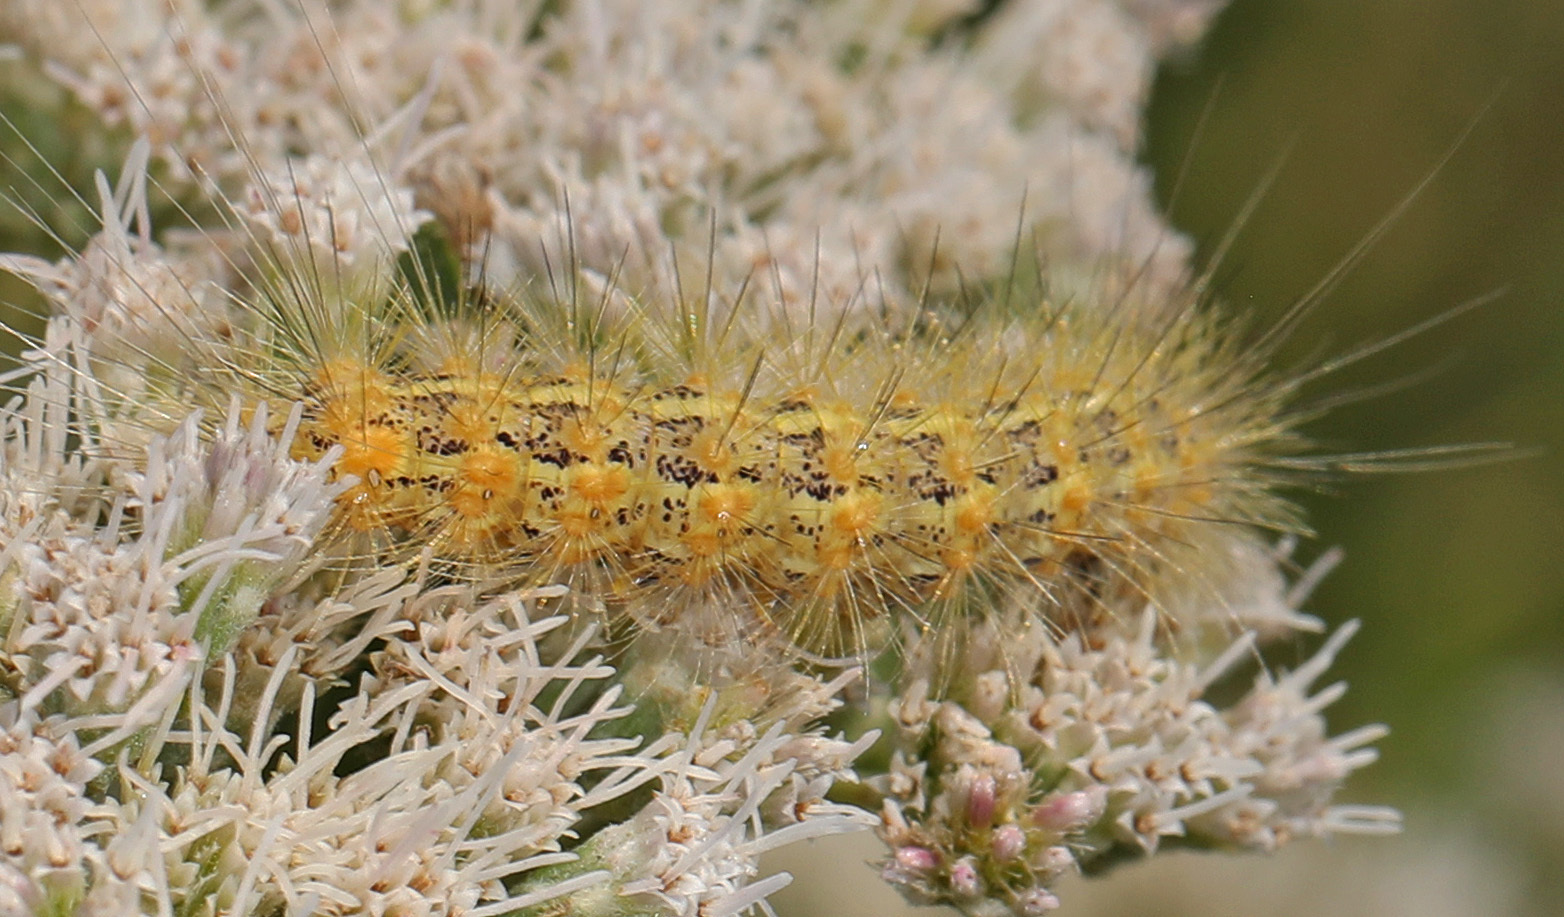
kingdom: Animalia
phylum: Arthropoda
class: Insecta
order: Lepidoptera
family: Erebidae
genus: Estigmene
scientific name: Estigmene acrea
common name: Salt marsh moth
